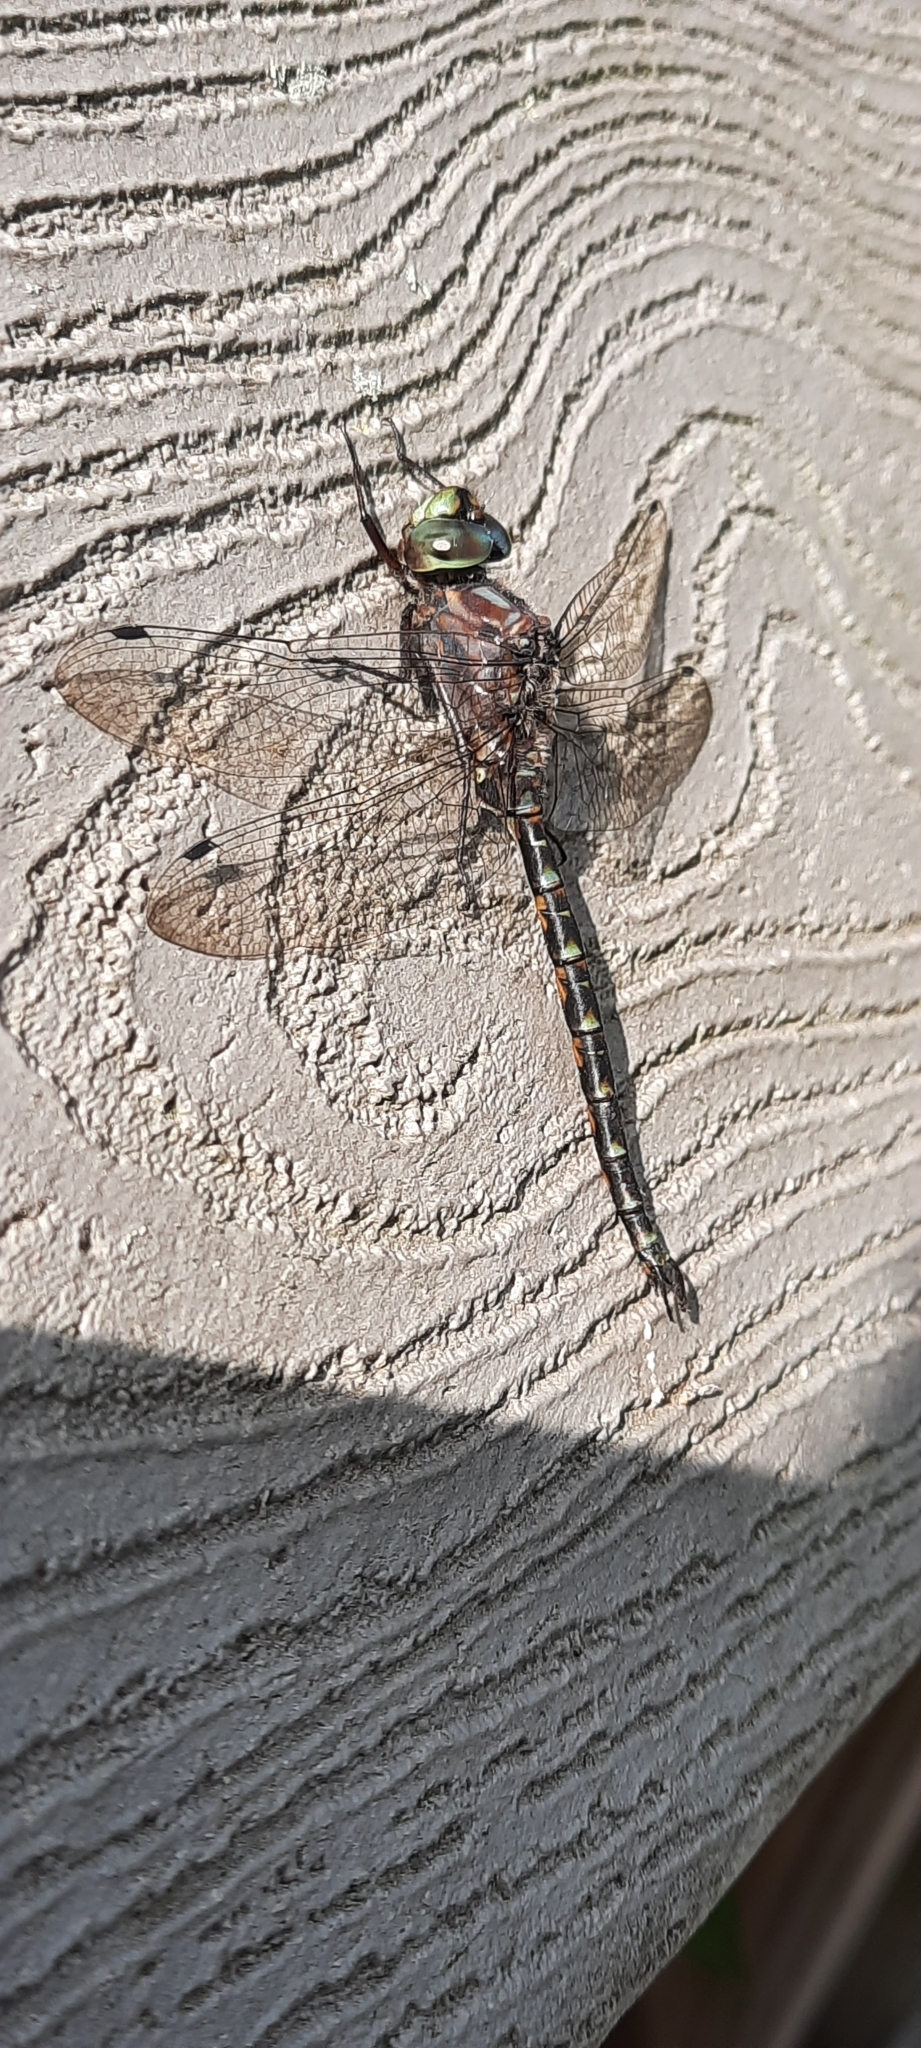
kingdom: Animalia
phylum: Arthropoda
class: Insecta
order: Odonata
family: Aeshnidae
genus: Gomphaeschna
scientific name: Gomphaeschna furcillata
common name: Harlequin darner
